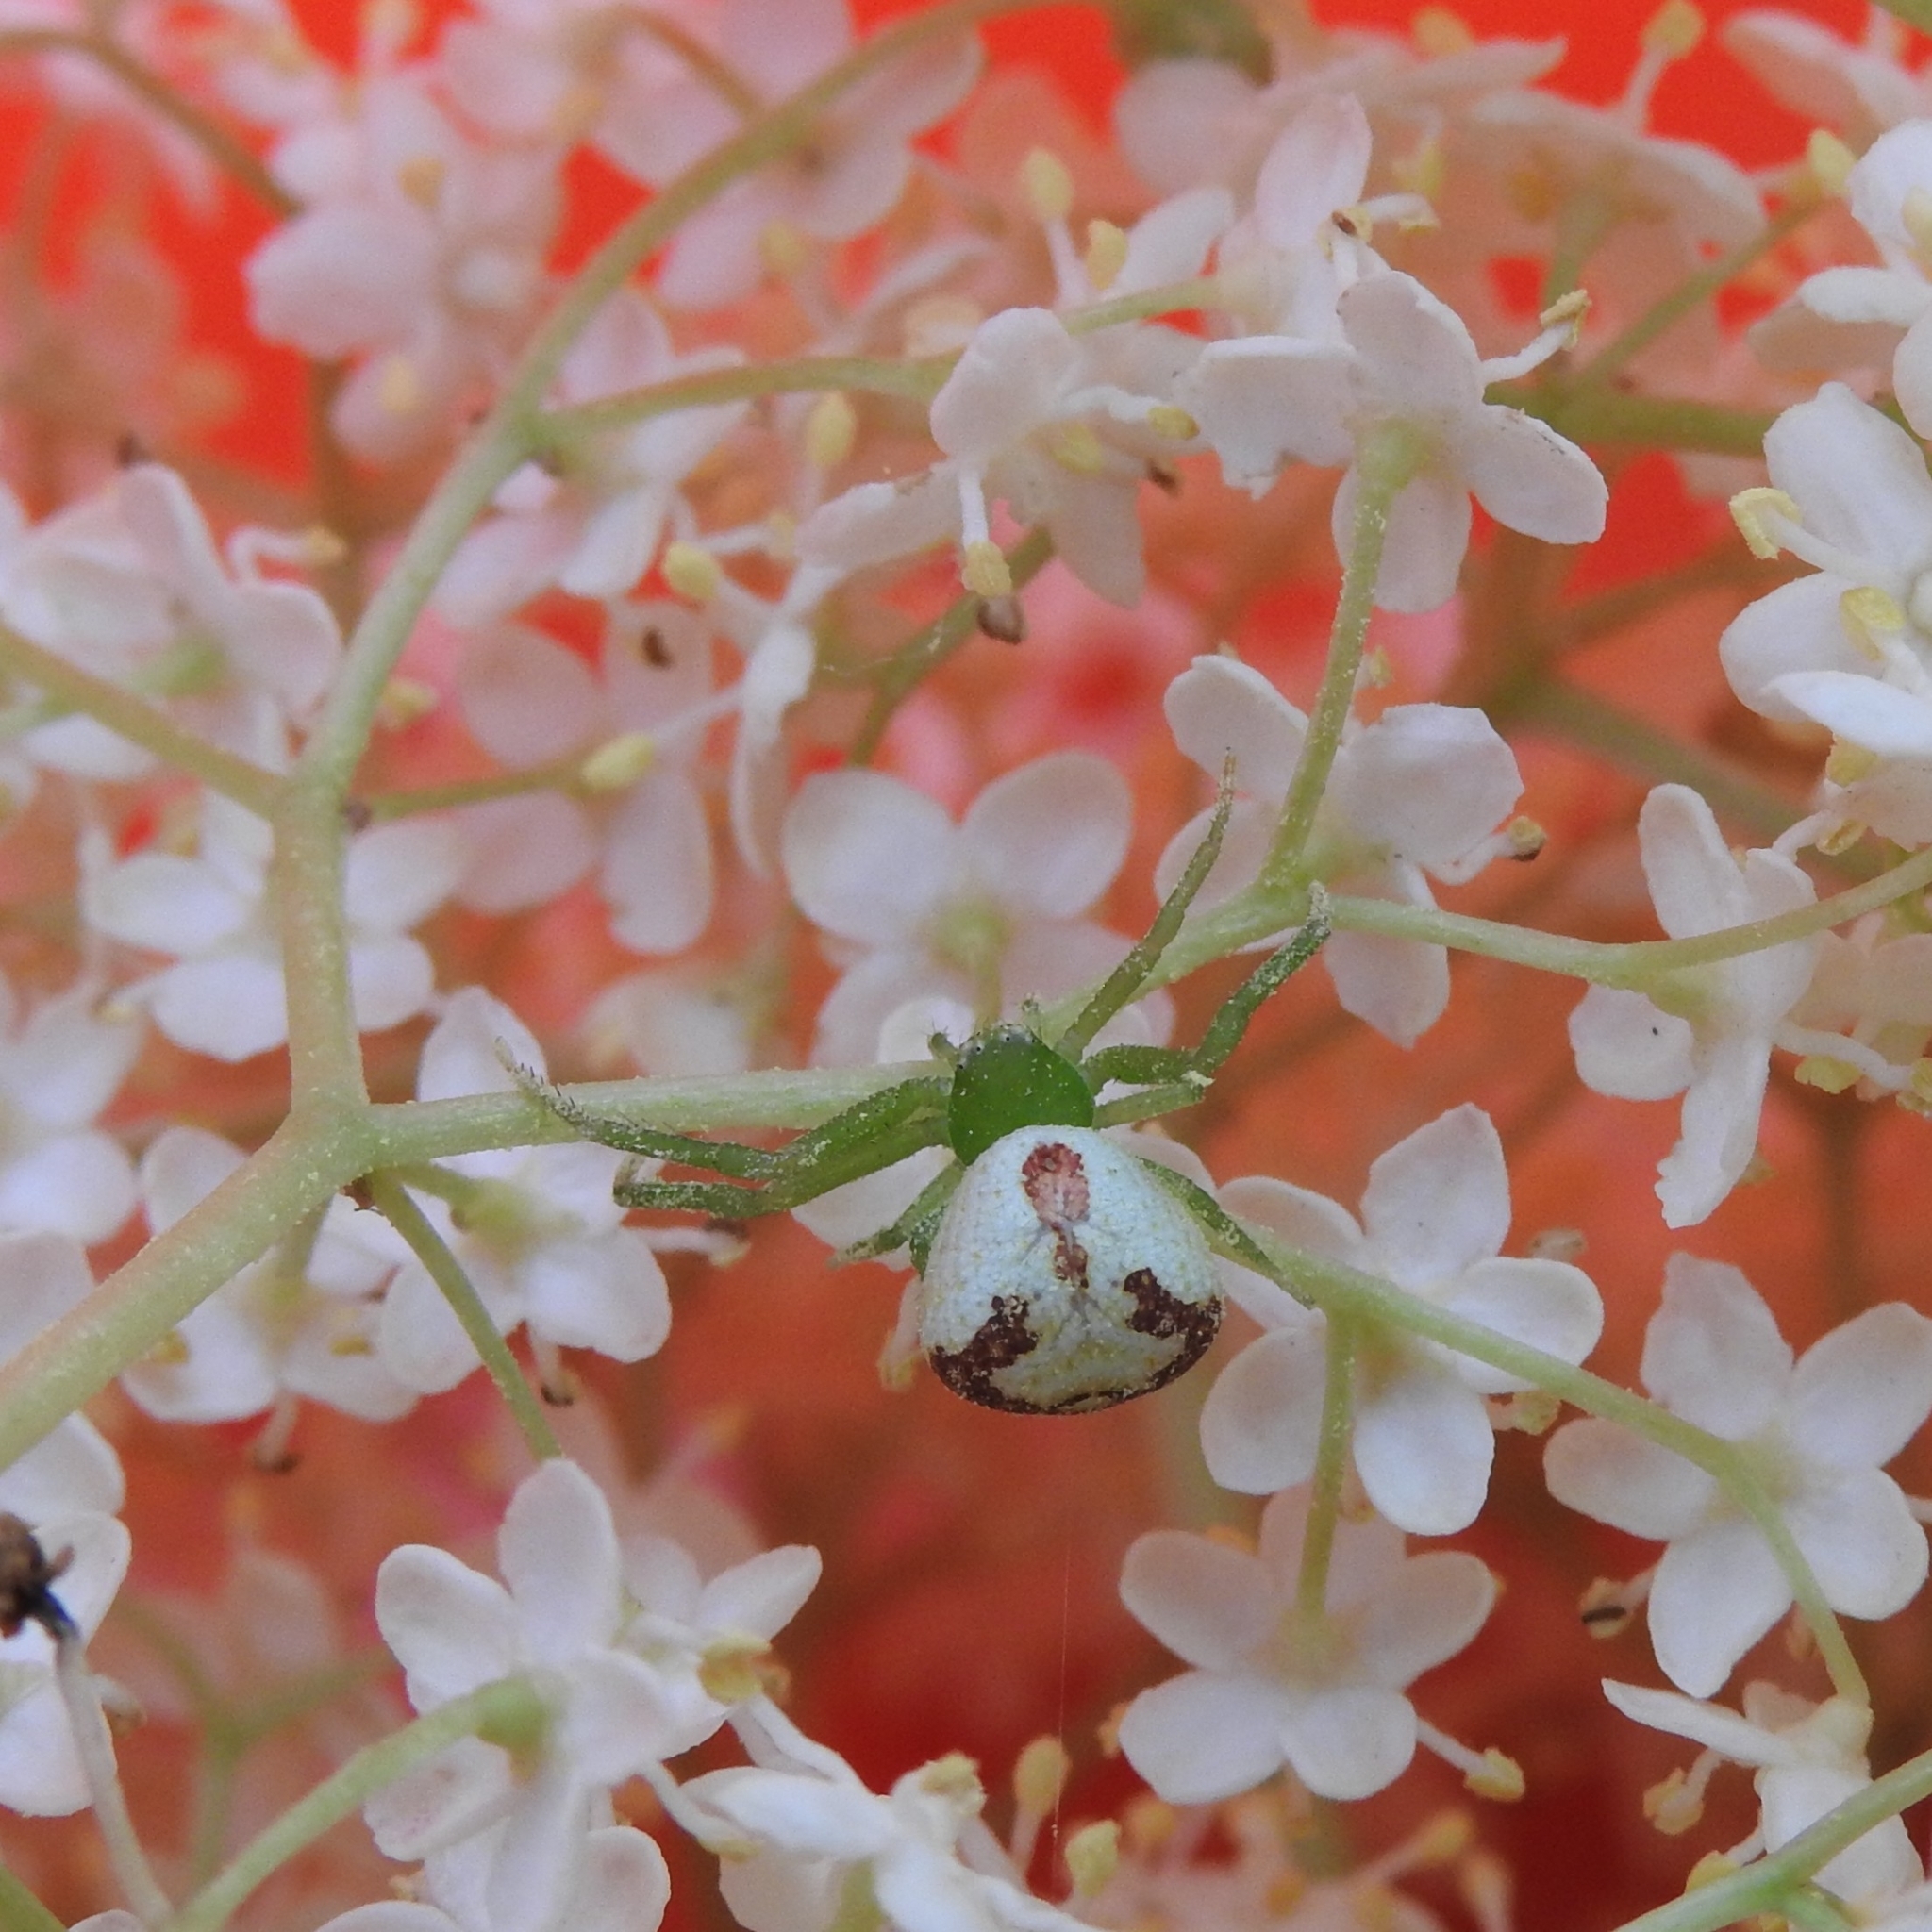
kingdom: Animalia
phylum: Arthropoda
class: Arachnida
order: Araneae
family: Thomisidae
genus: Ebrechtella
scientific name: Ebrechtella tricuspidata
